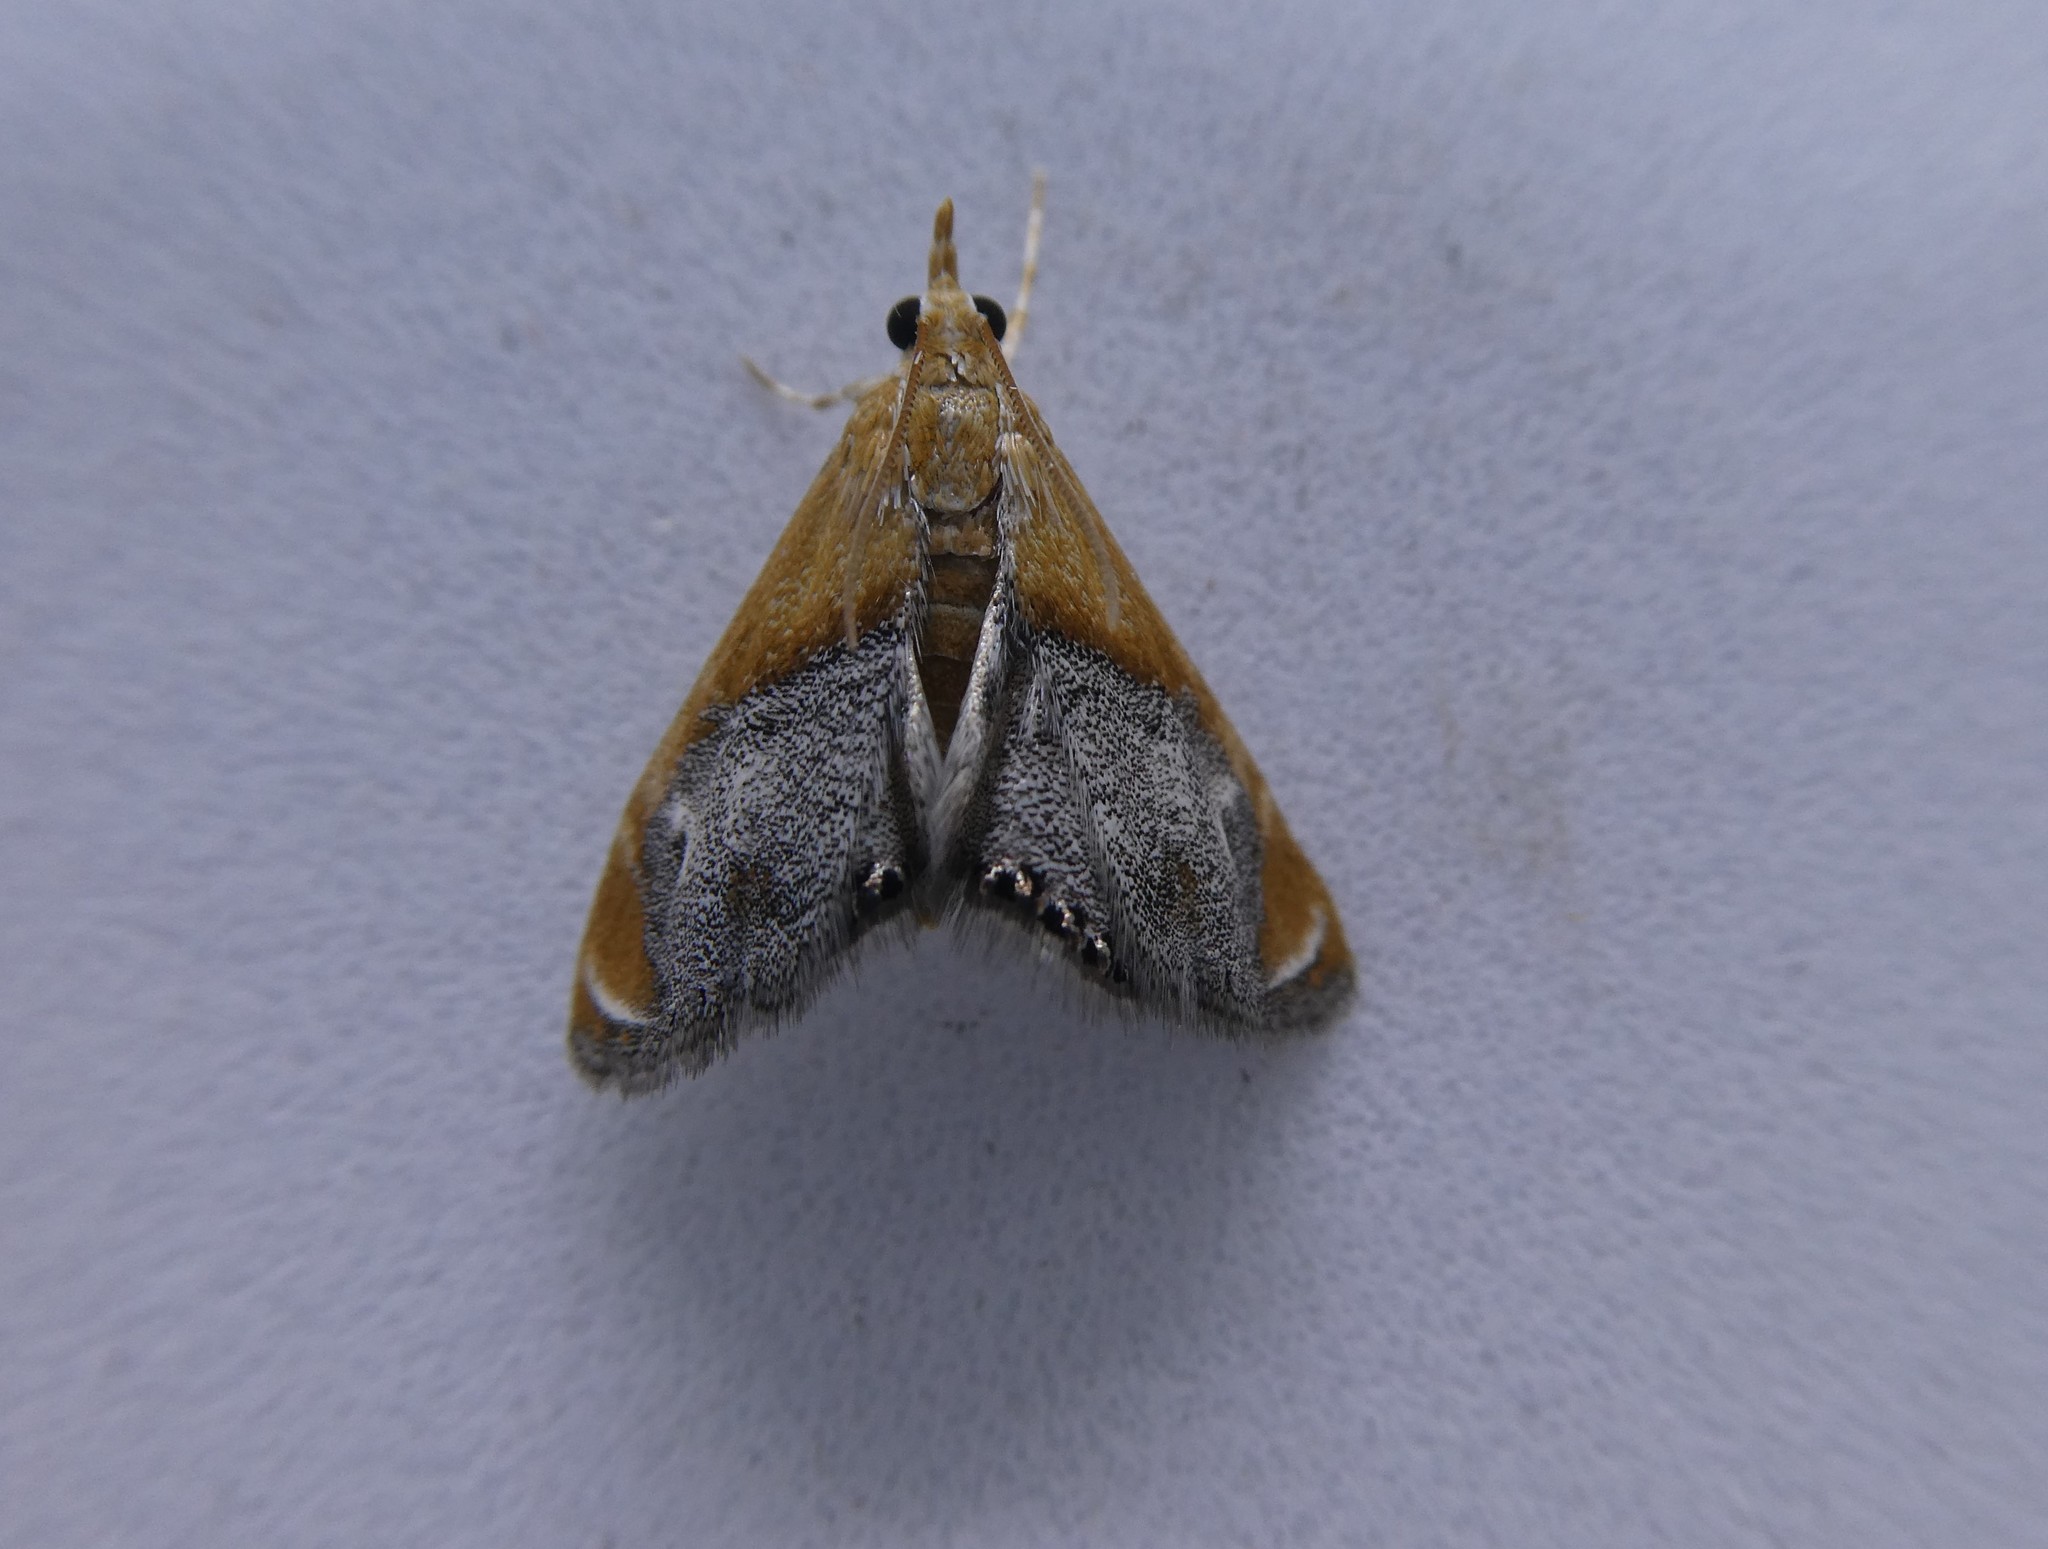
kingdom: Animalia
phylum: Arthropoda
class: Insecta
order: Lepidoptera
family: Crambidae
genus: Chalcoela
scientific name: Chalcoela iphitalis
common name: Sooty-winged chalcoela moth
